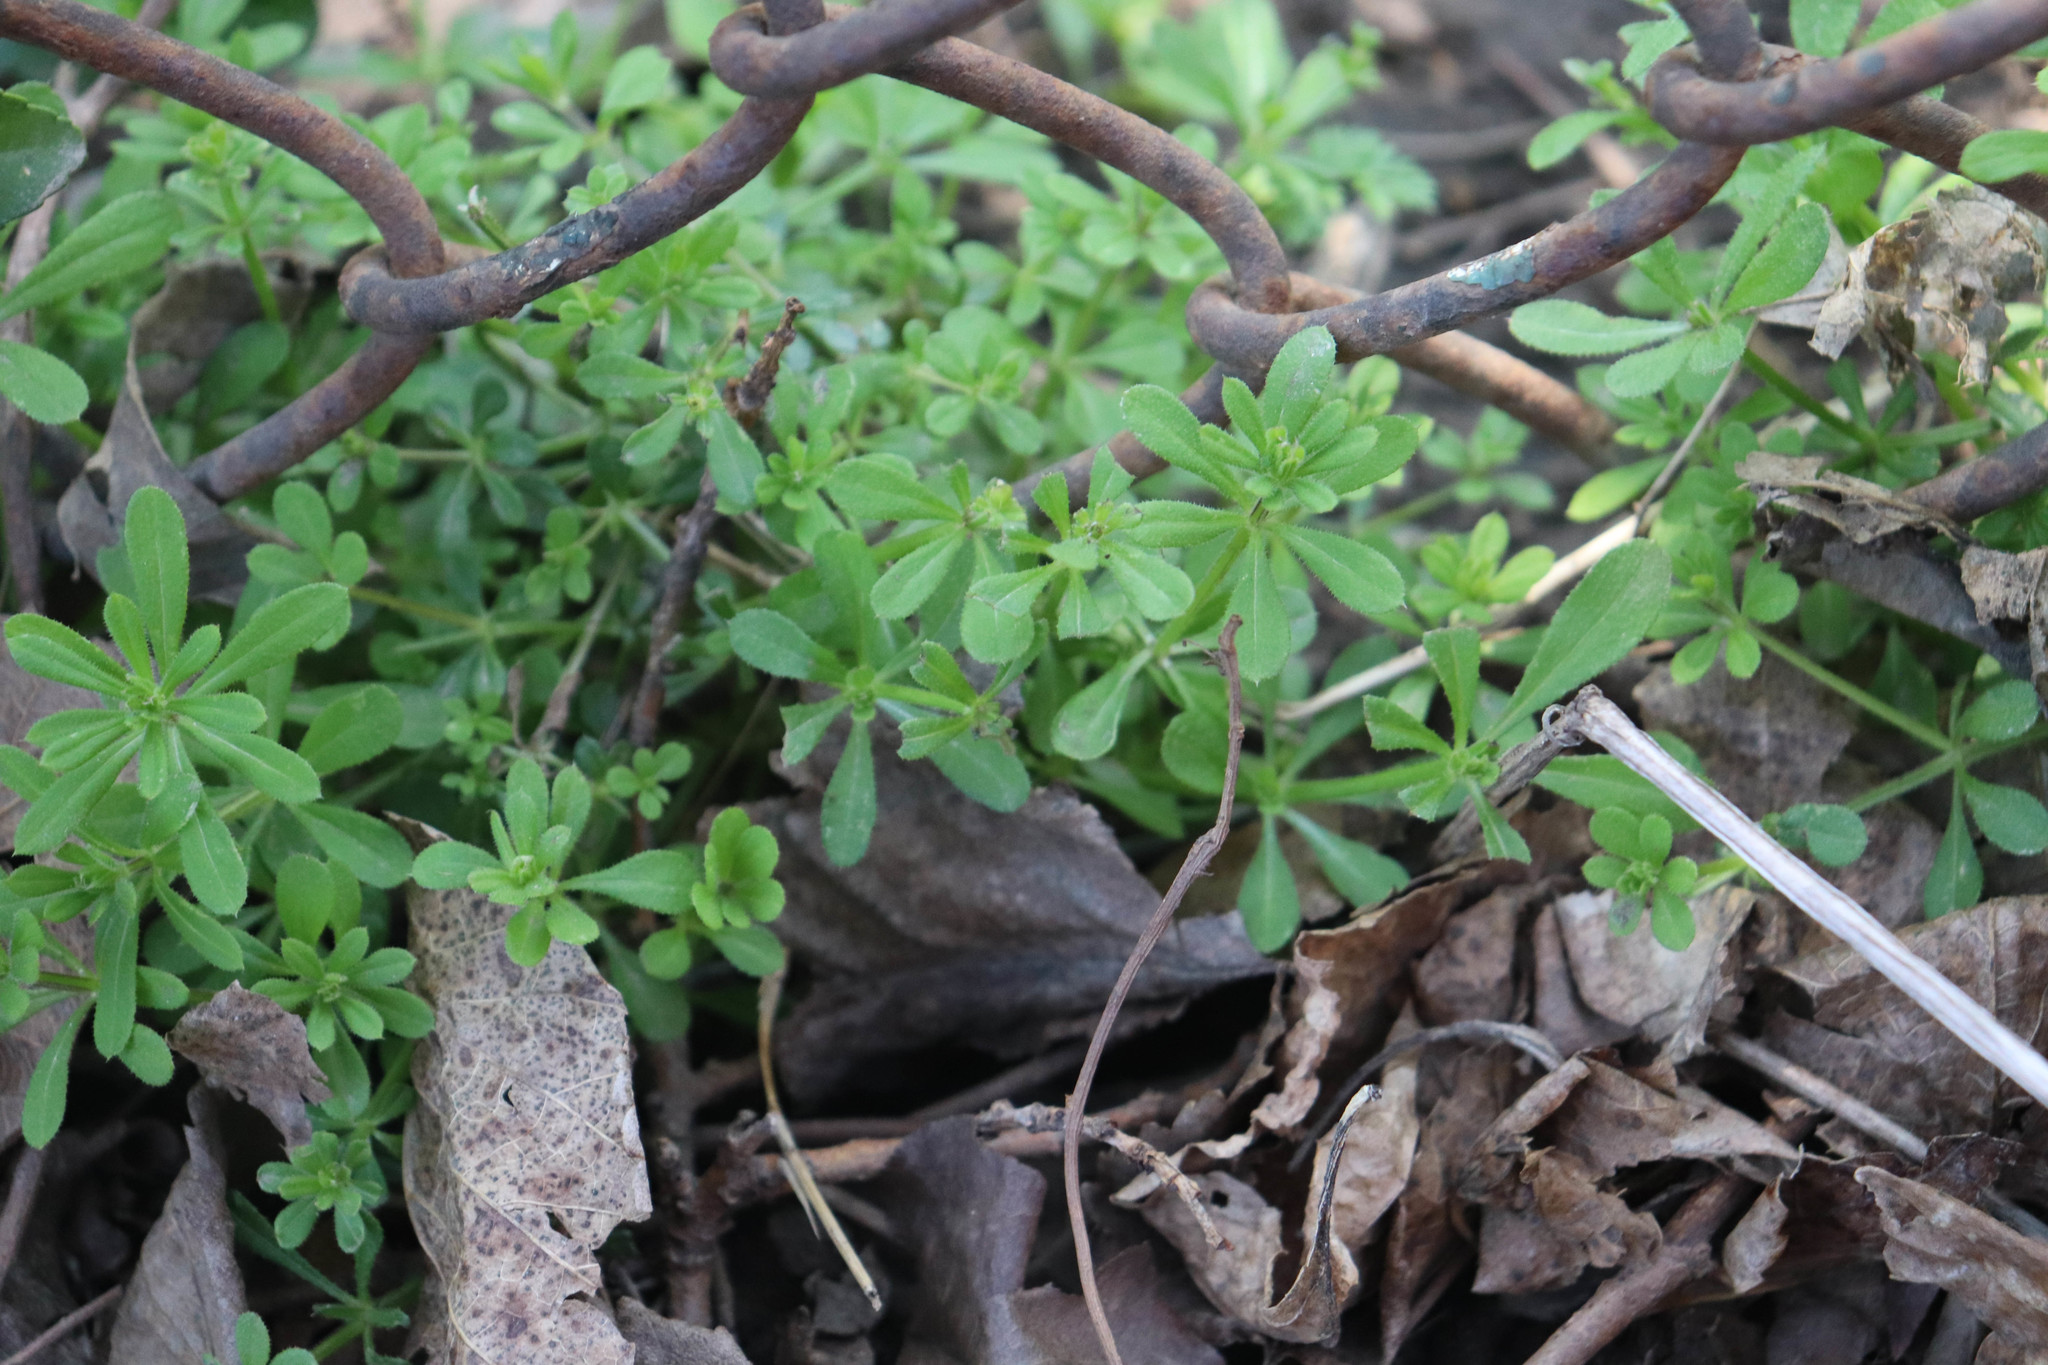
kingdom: Plantae
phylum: Tracheophyta
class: Magnoliopsida
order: Gentianales
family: Rubiaceae
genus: Galium
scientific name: Galium aparine
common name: Cleavers
